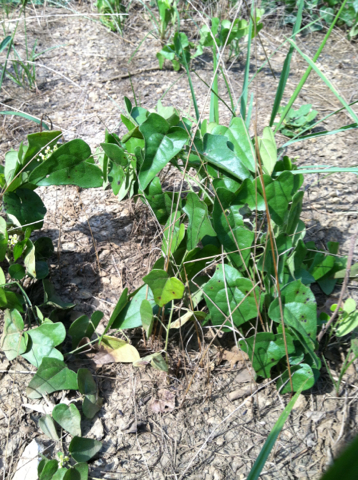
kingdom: Plantae
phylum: Tracheophyta
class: Magnoliopsida
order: Ranunculales
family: Menispermaceae
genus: Cocculus
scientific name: Cocculus carolinus
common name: Carolina moonseed
